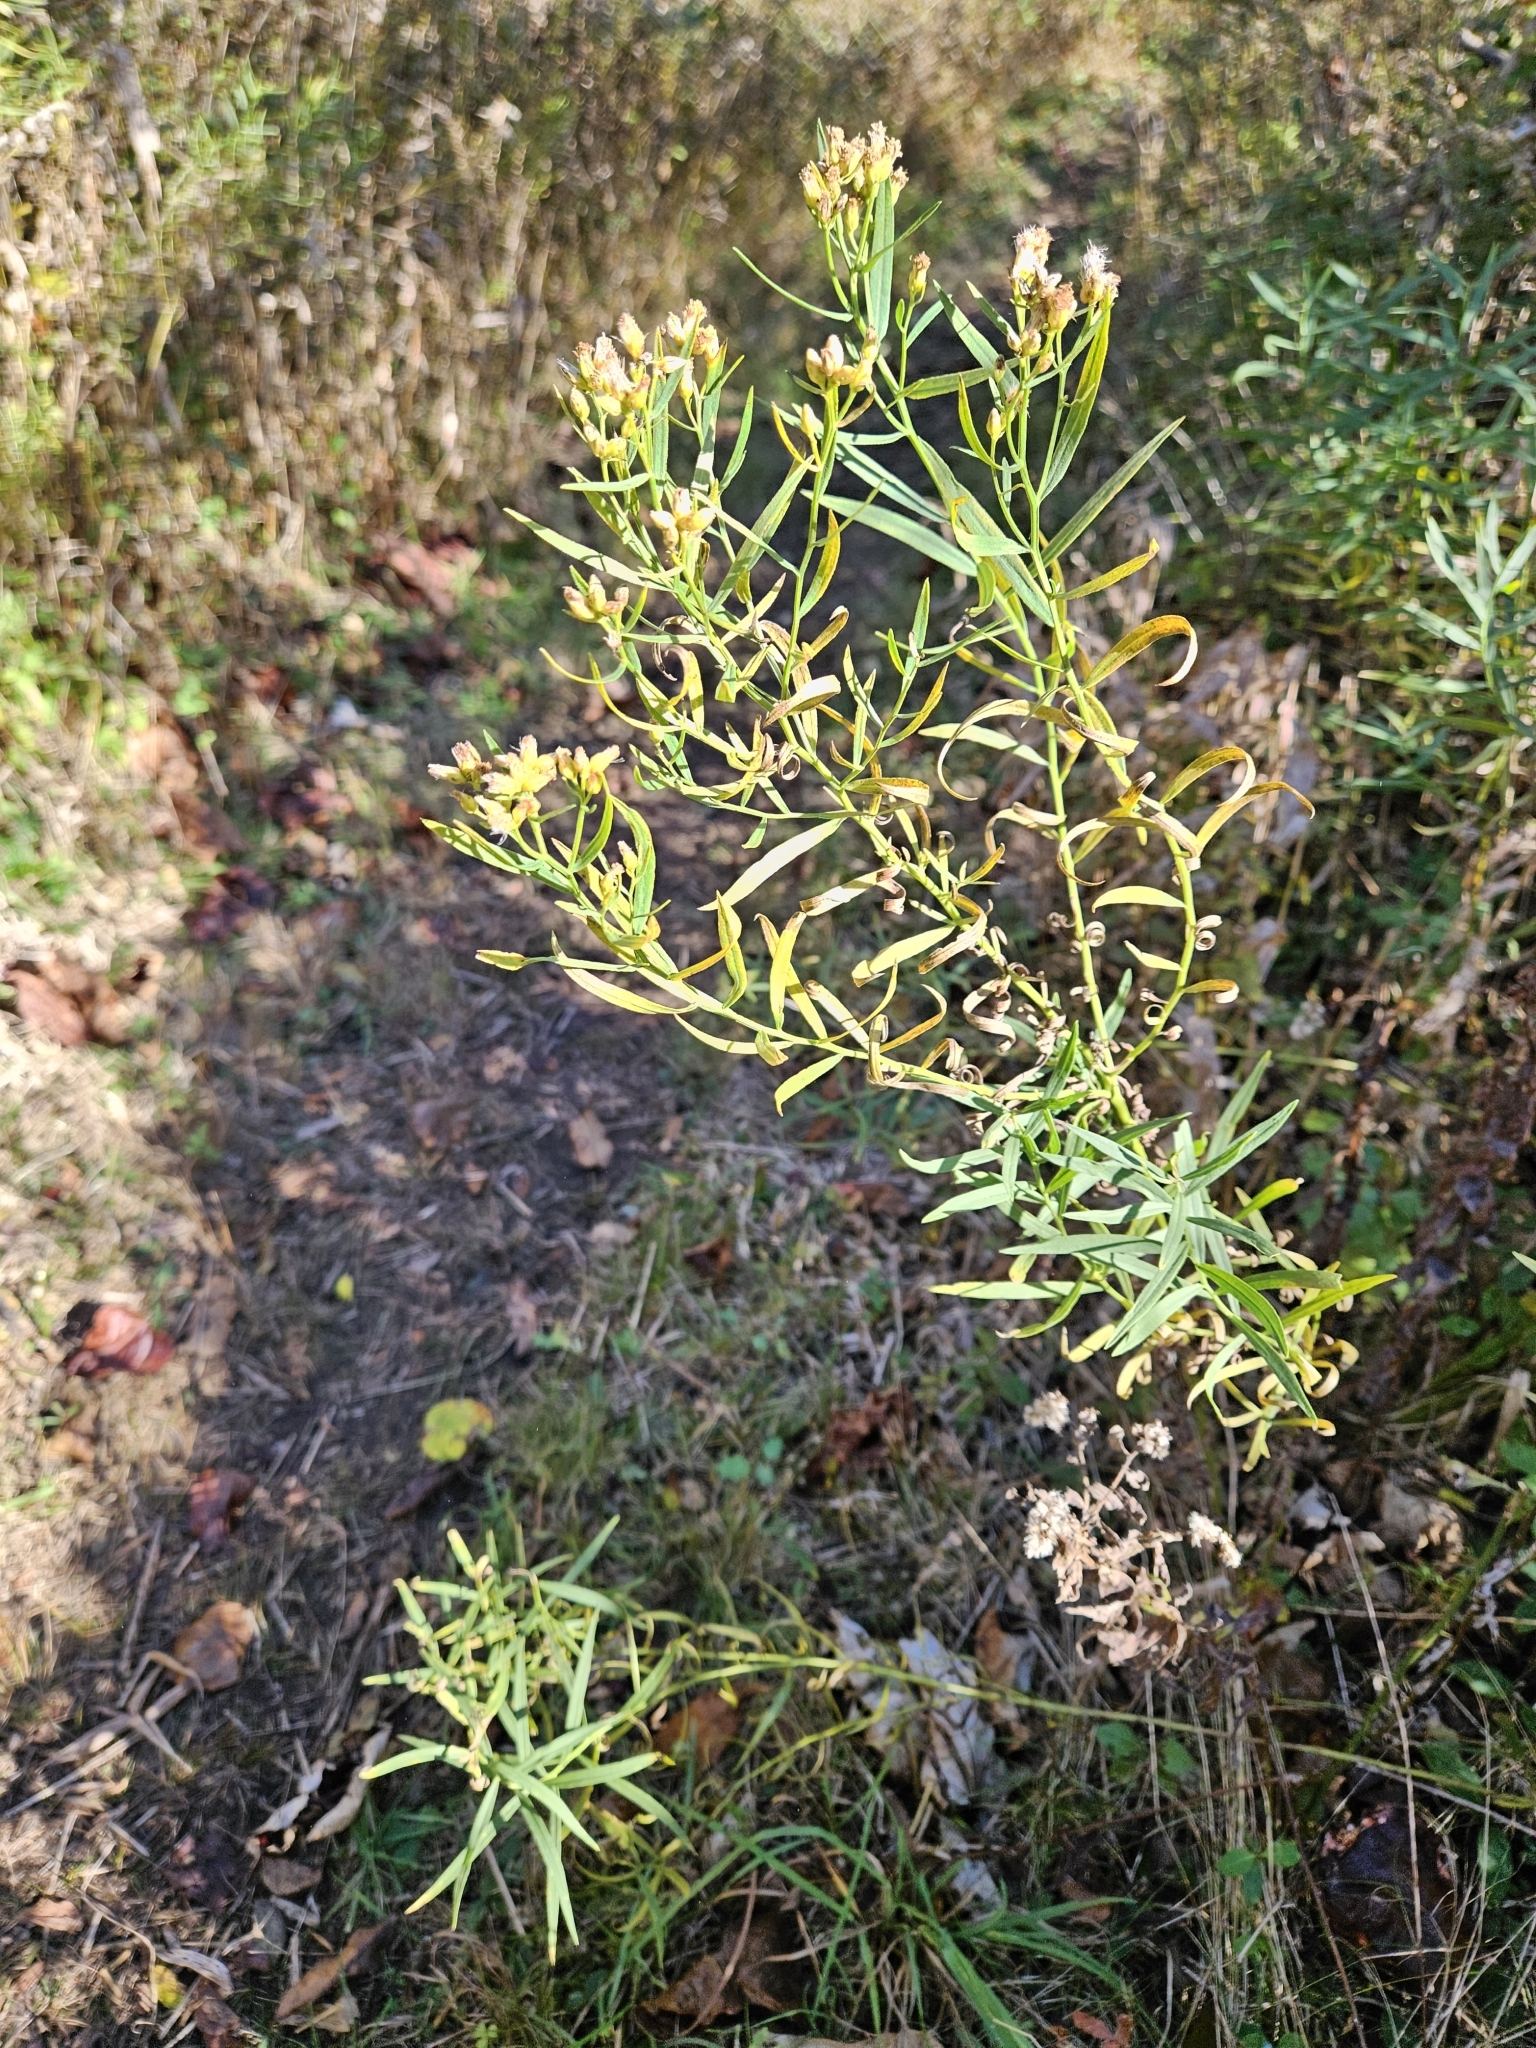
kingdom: Plantae
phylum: Tracheophyta
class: Magnoliopsida
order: Asterales
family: Asteraceae
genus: Euthamia
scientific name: Euthamia graminifolia
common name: Common goldentop
